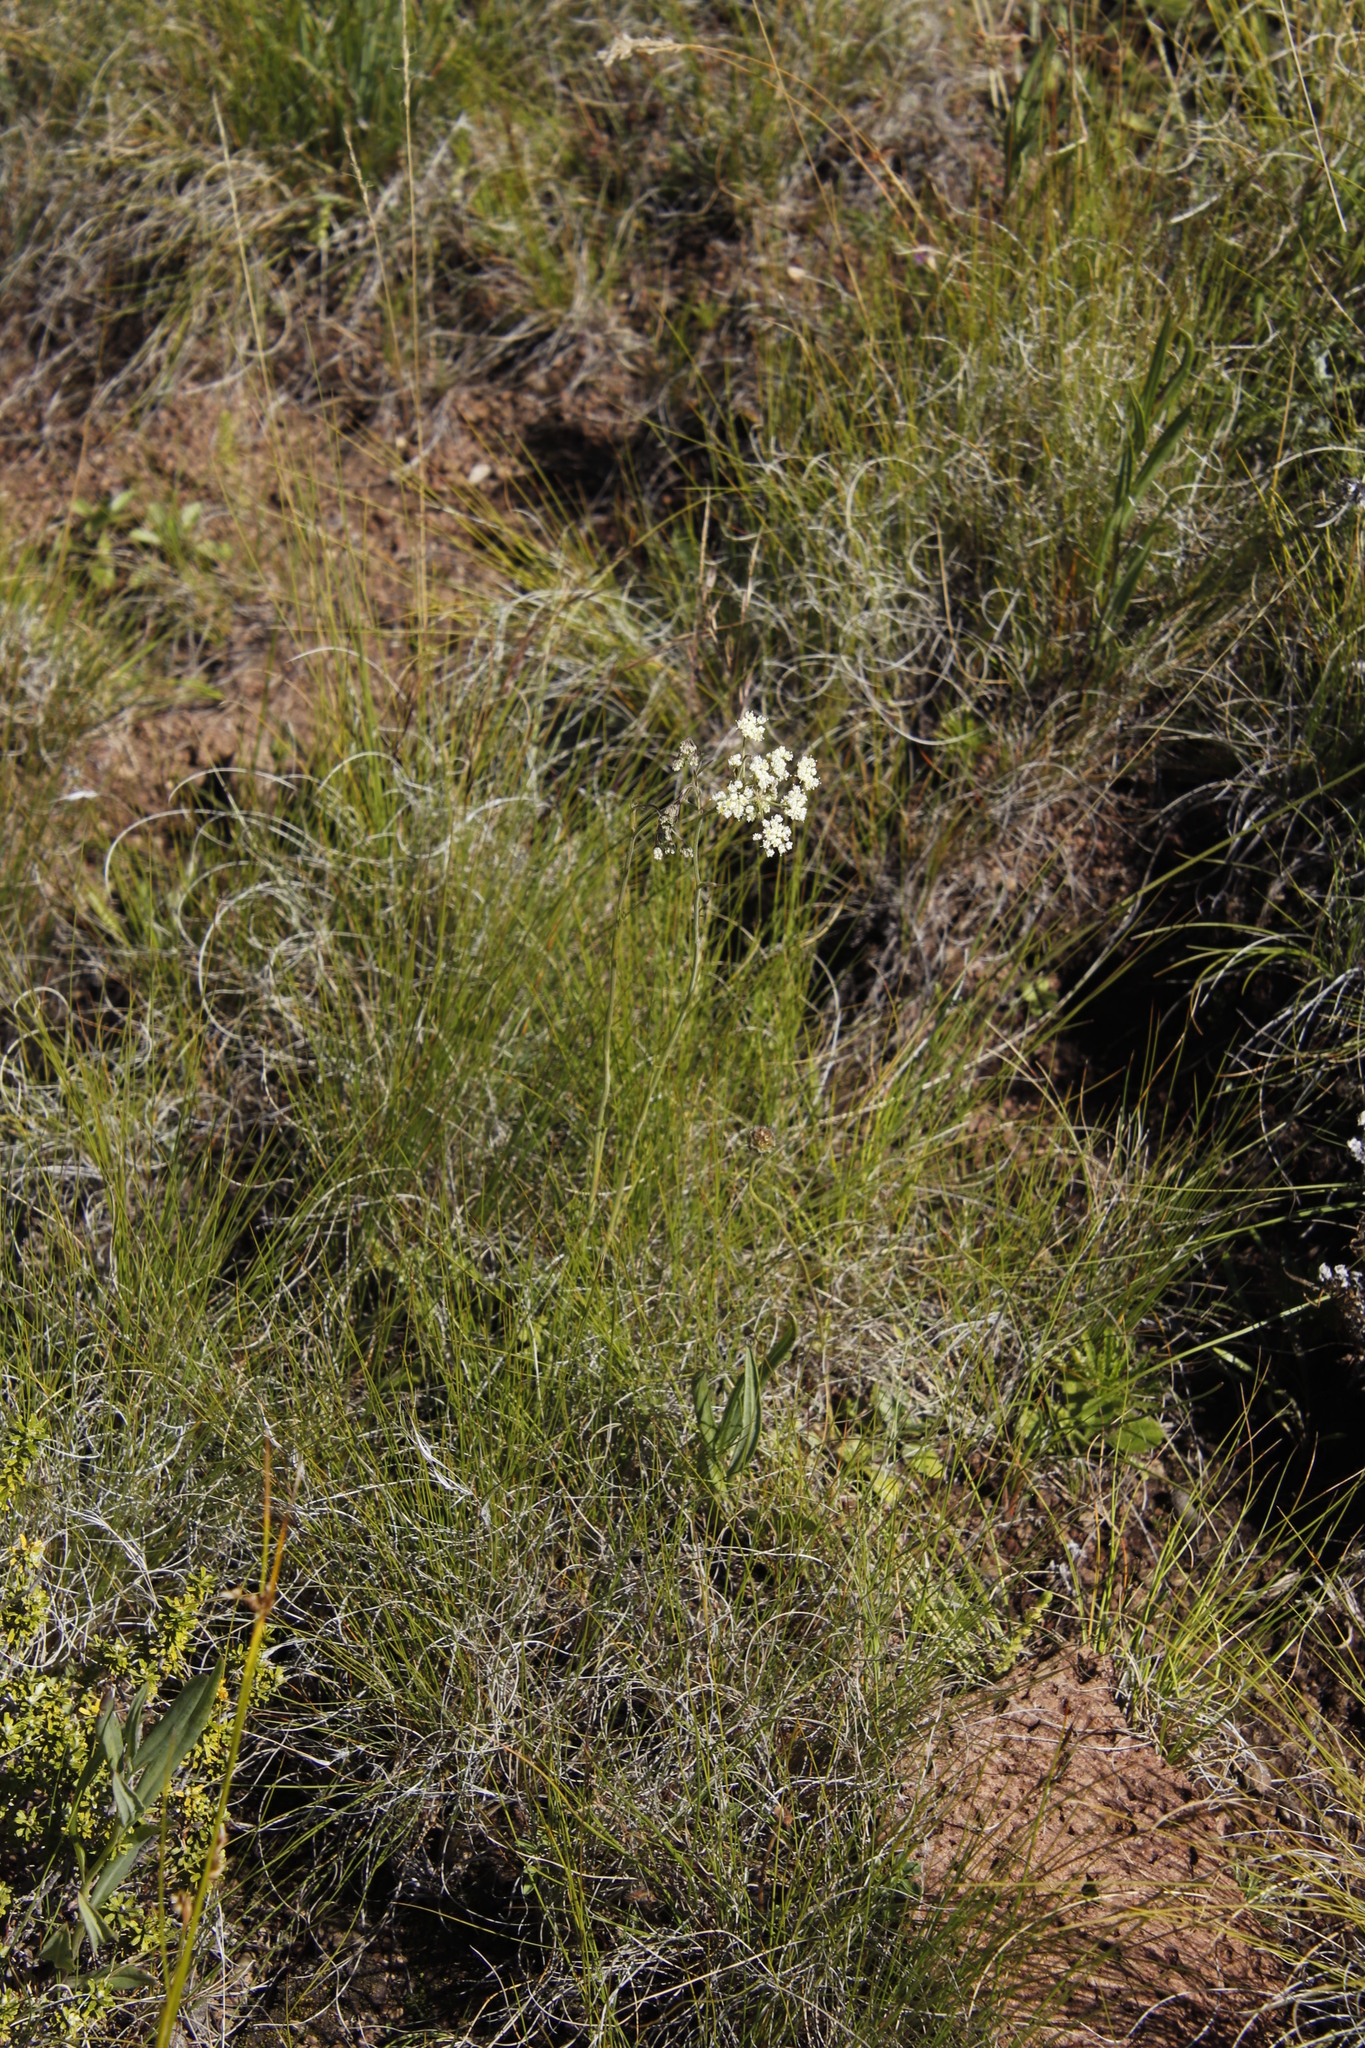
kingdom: Plantae
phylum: Tracheophyta
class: Magnoliopsida
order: Apiales
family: Apiaceae
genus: Pimpinella
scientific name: Pimpinella caffra
